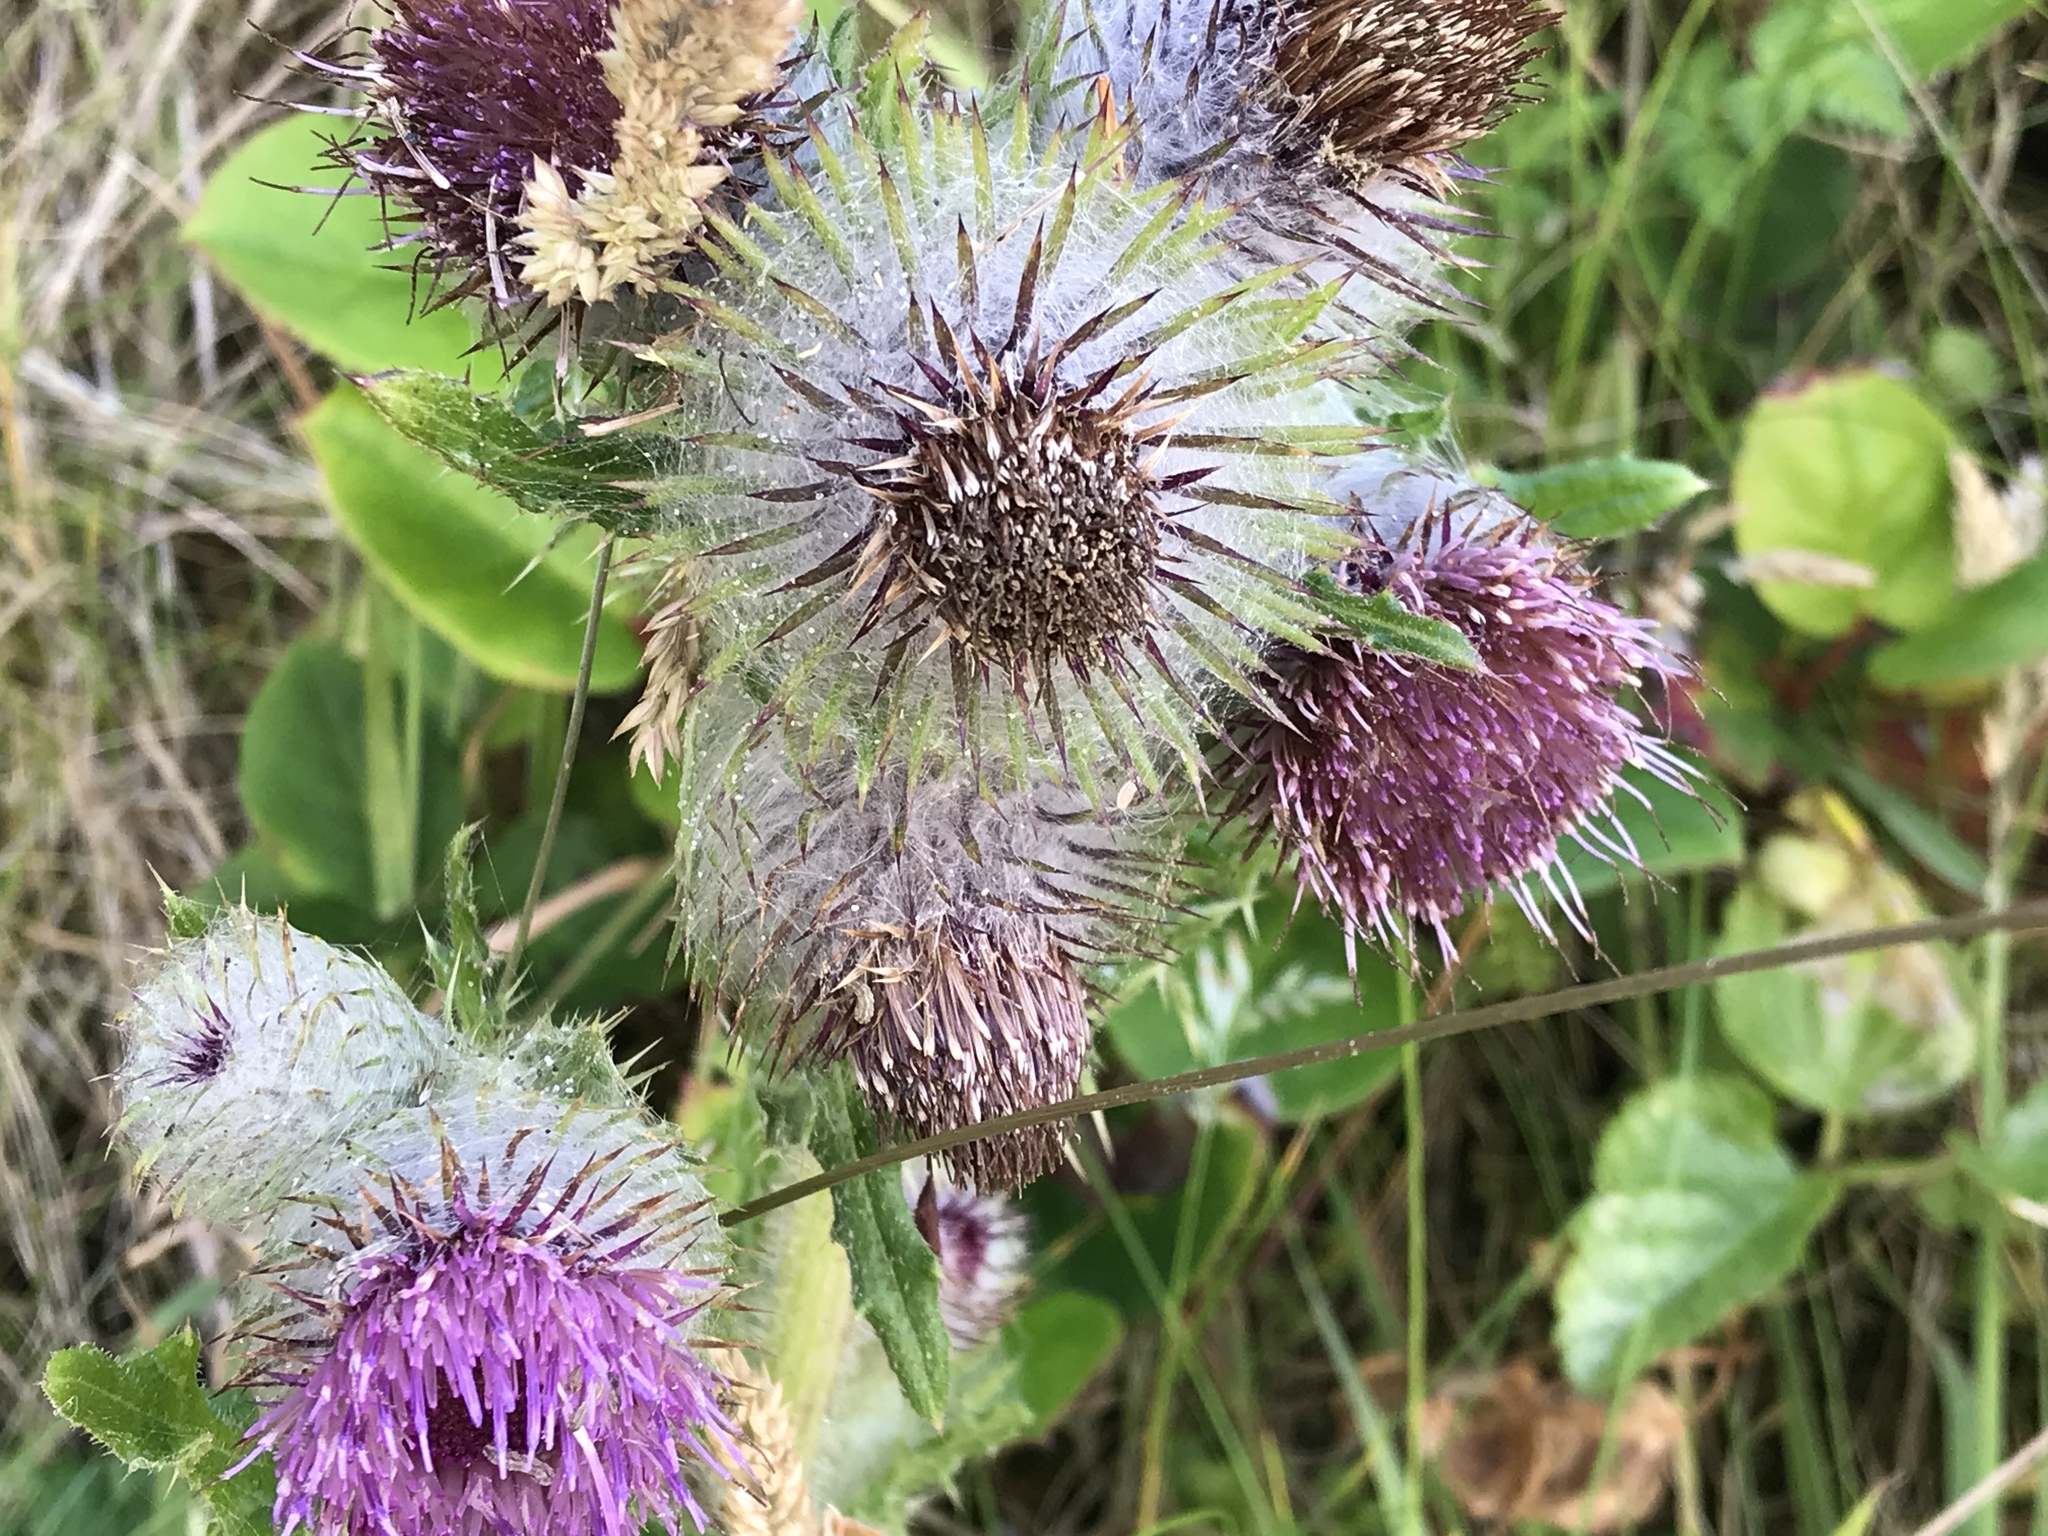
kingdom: Plantae
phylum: Tracheophyta
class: Magnoliopsida
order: Asterales
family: Asteraceae
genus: Cirsium
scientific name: Cirsium edule
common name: Indian thistle
